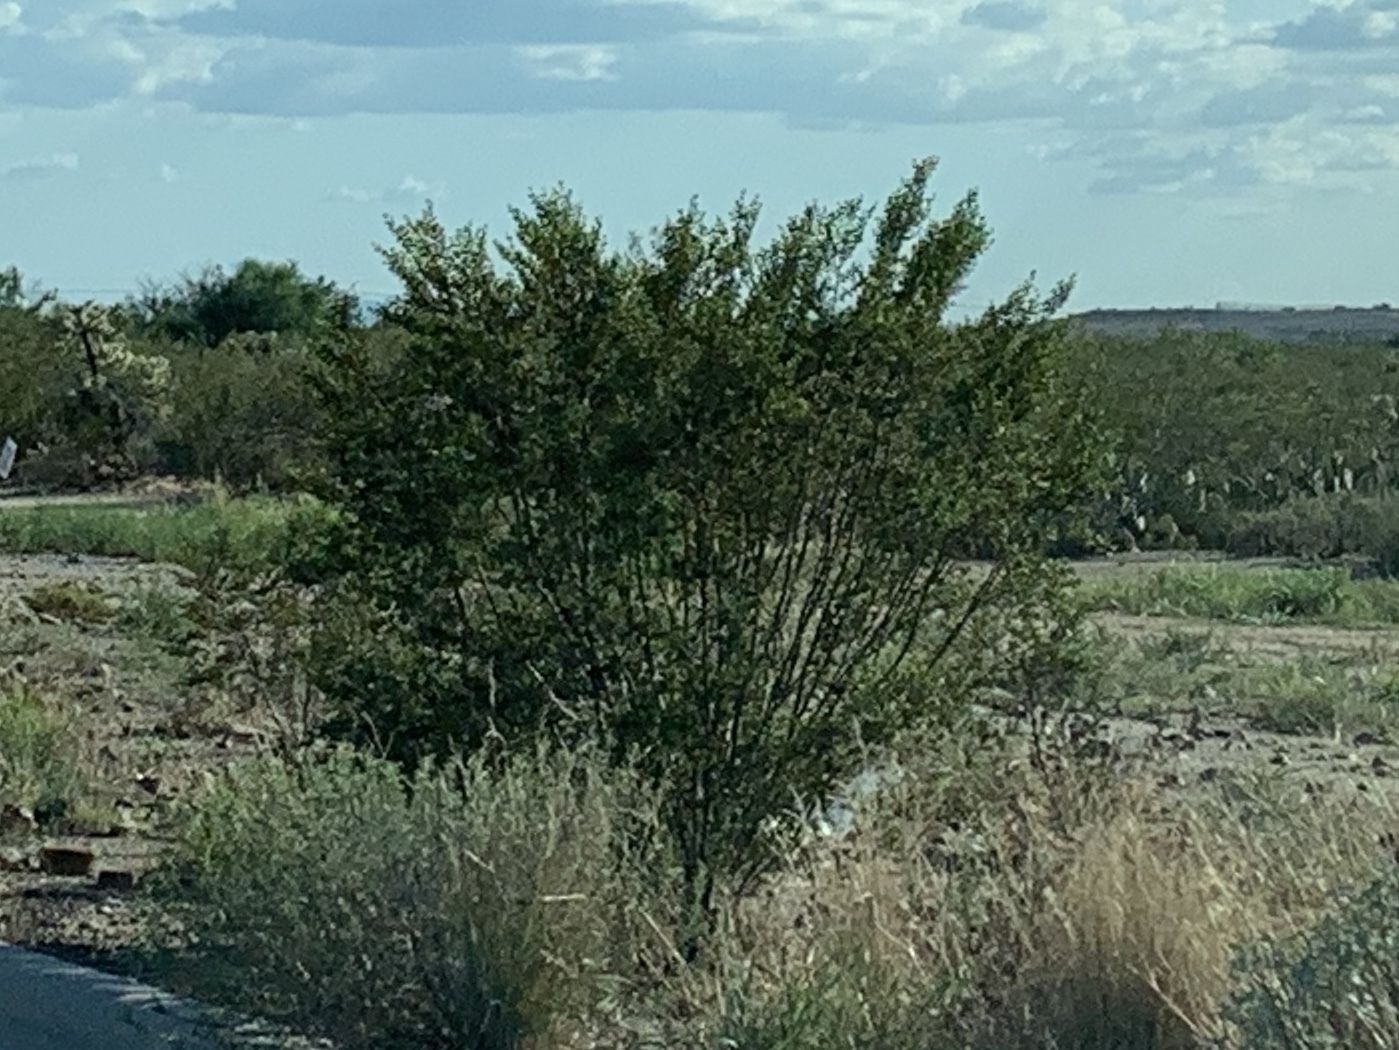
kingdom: Plantae
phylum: Tracheophyta
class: Magnoliopsida
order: Zygophyllales
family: Zygophyllaceae
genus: Larrea
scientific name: Larrea tridentata
